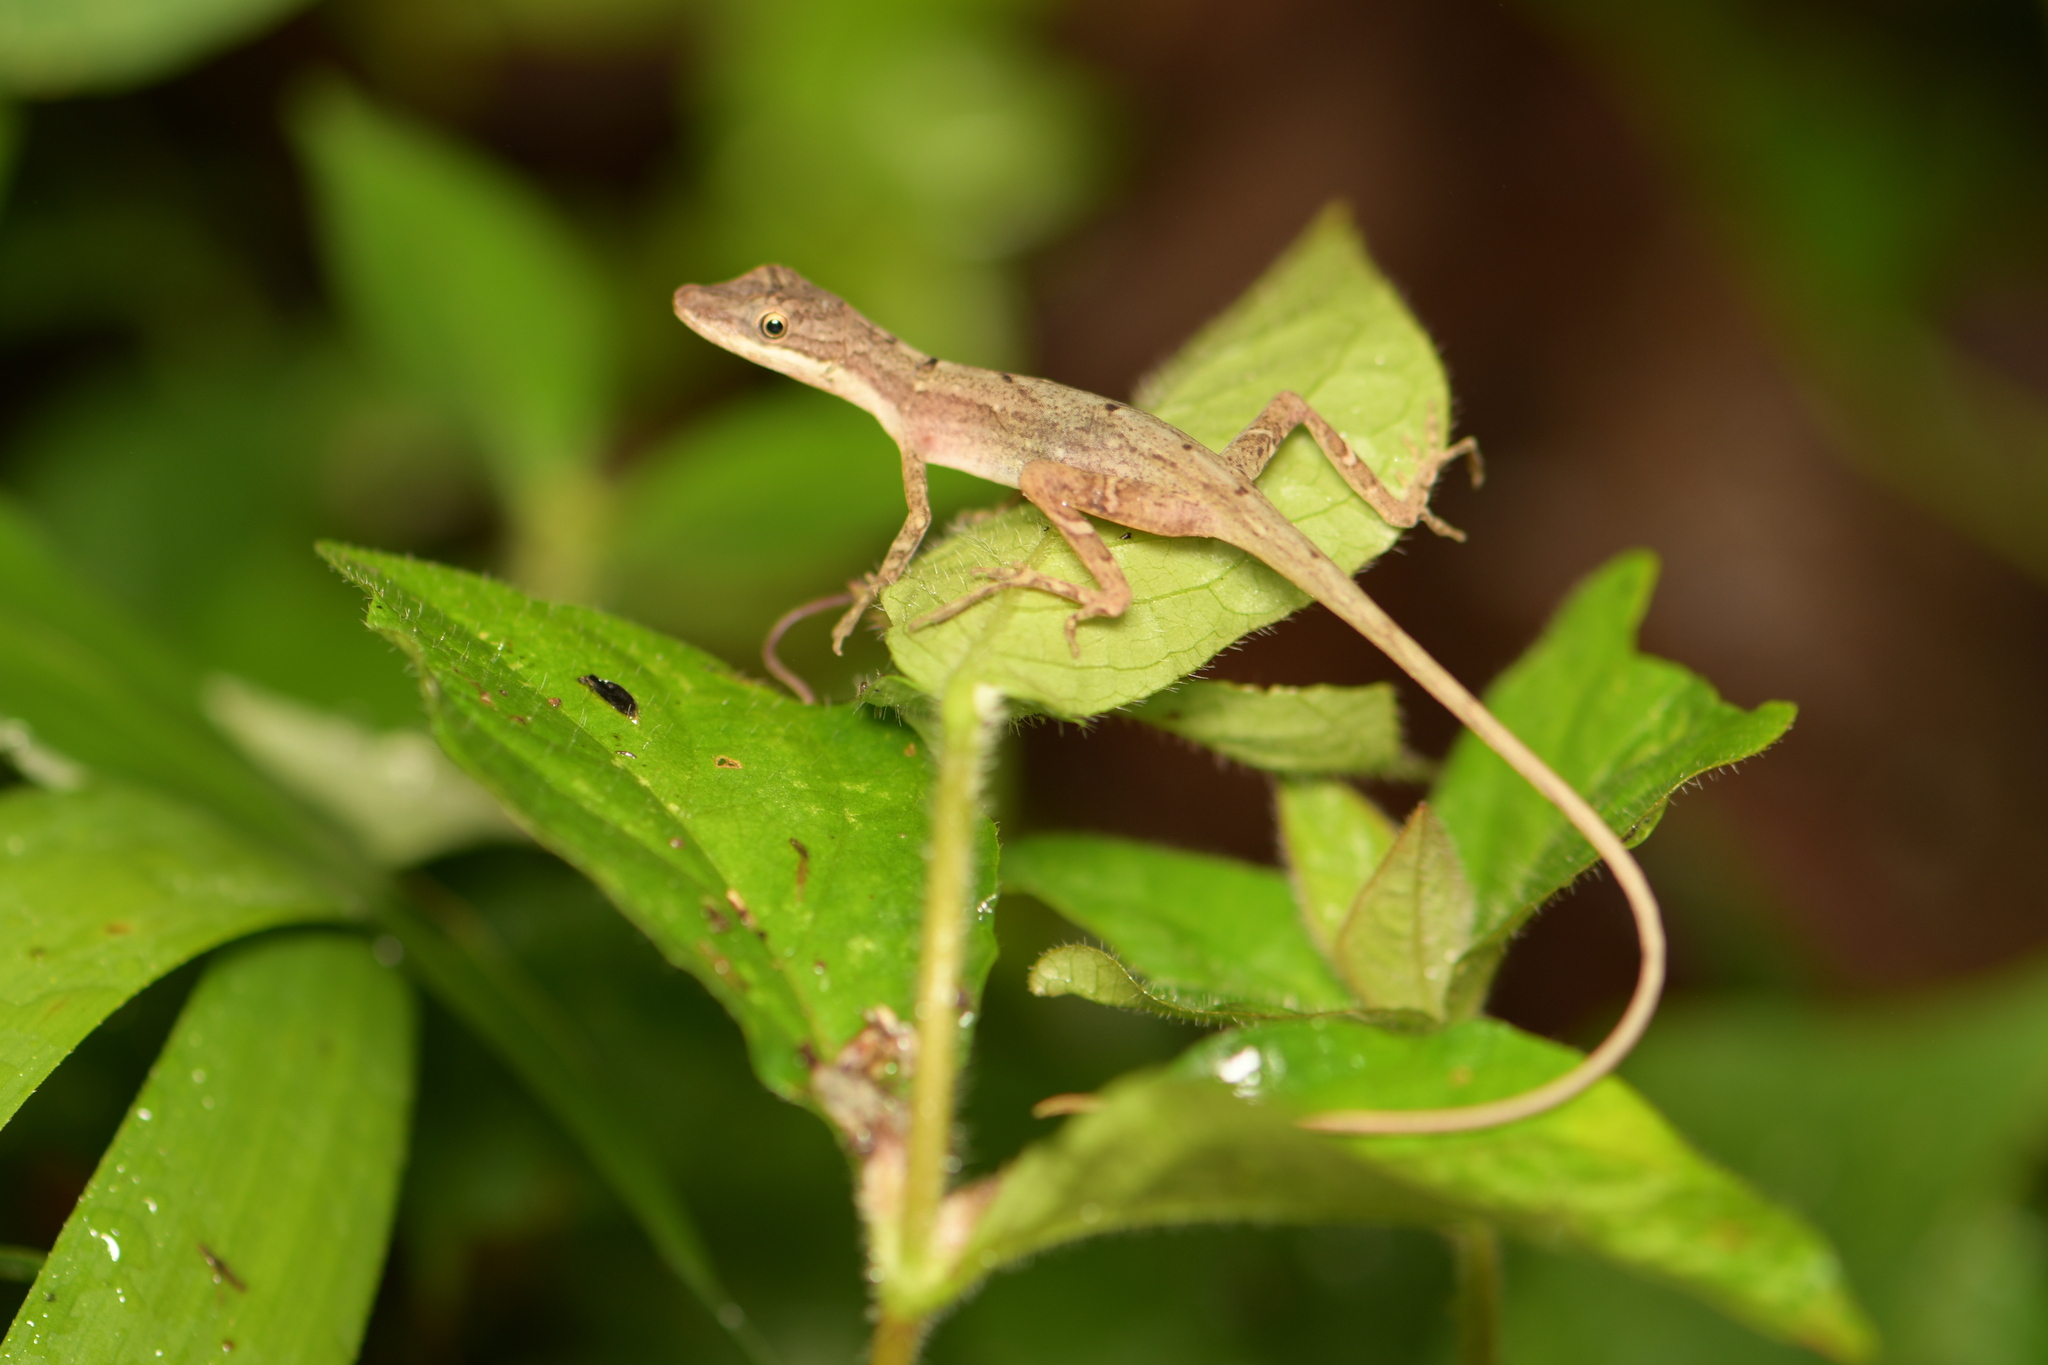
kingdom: Animalia
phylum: Chordata
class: Squamata
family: Dactyloidae
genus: Anolis
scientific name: Anolis limifrons
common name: Border anole
